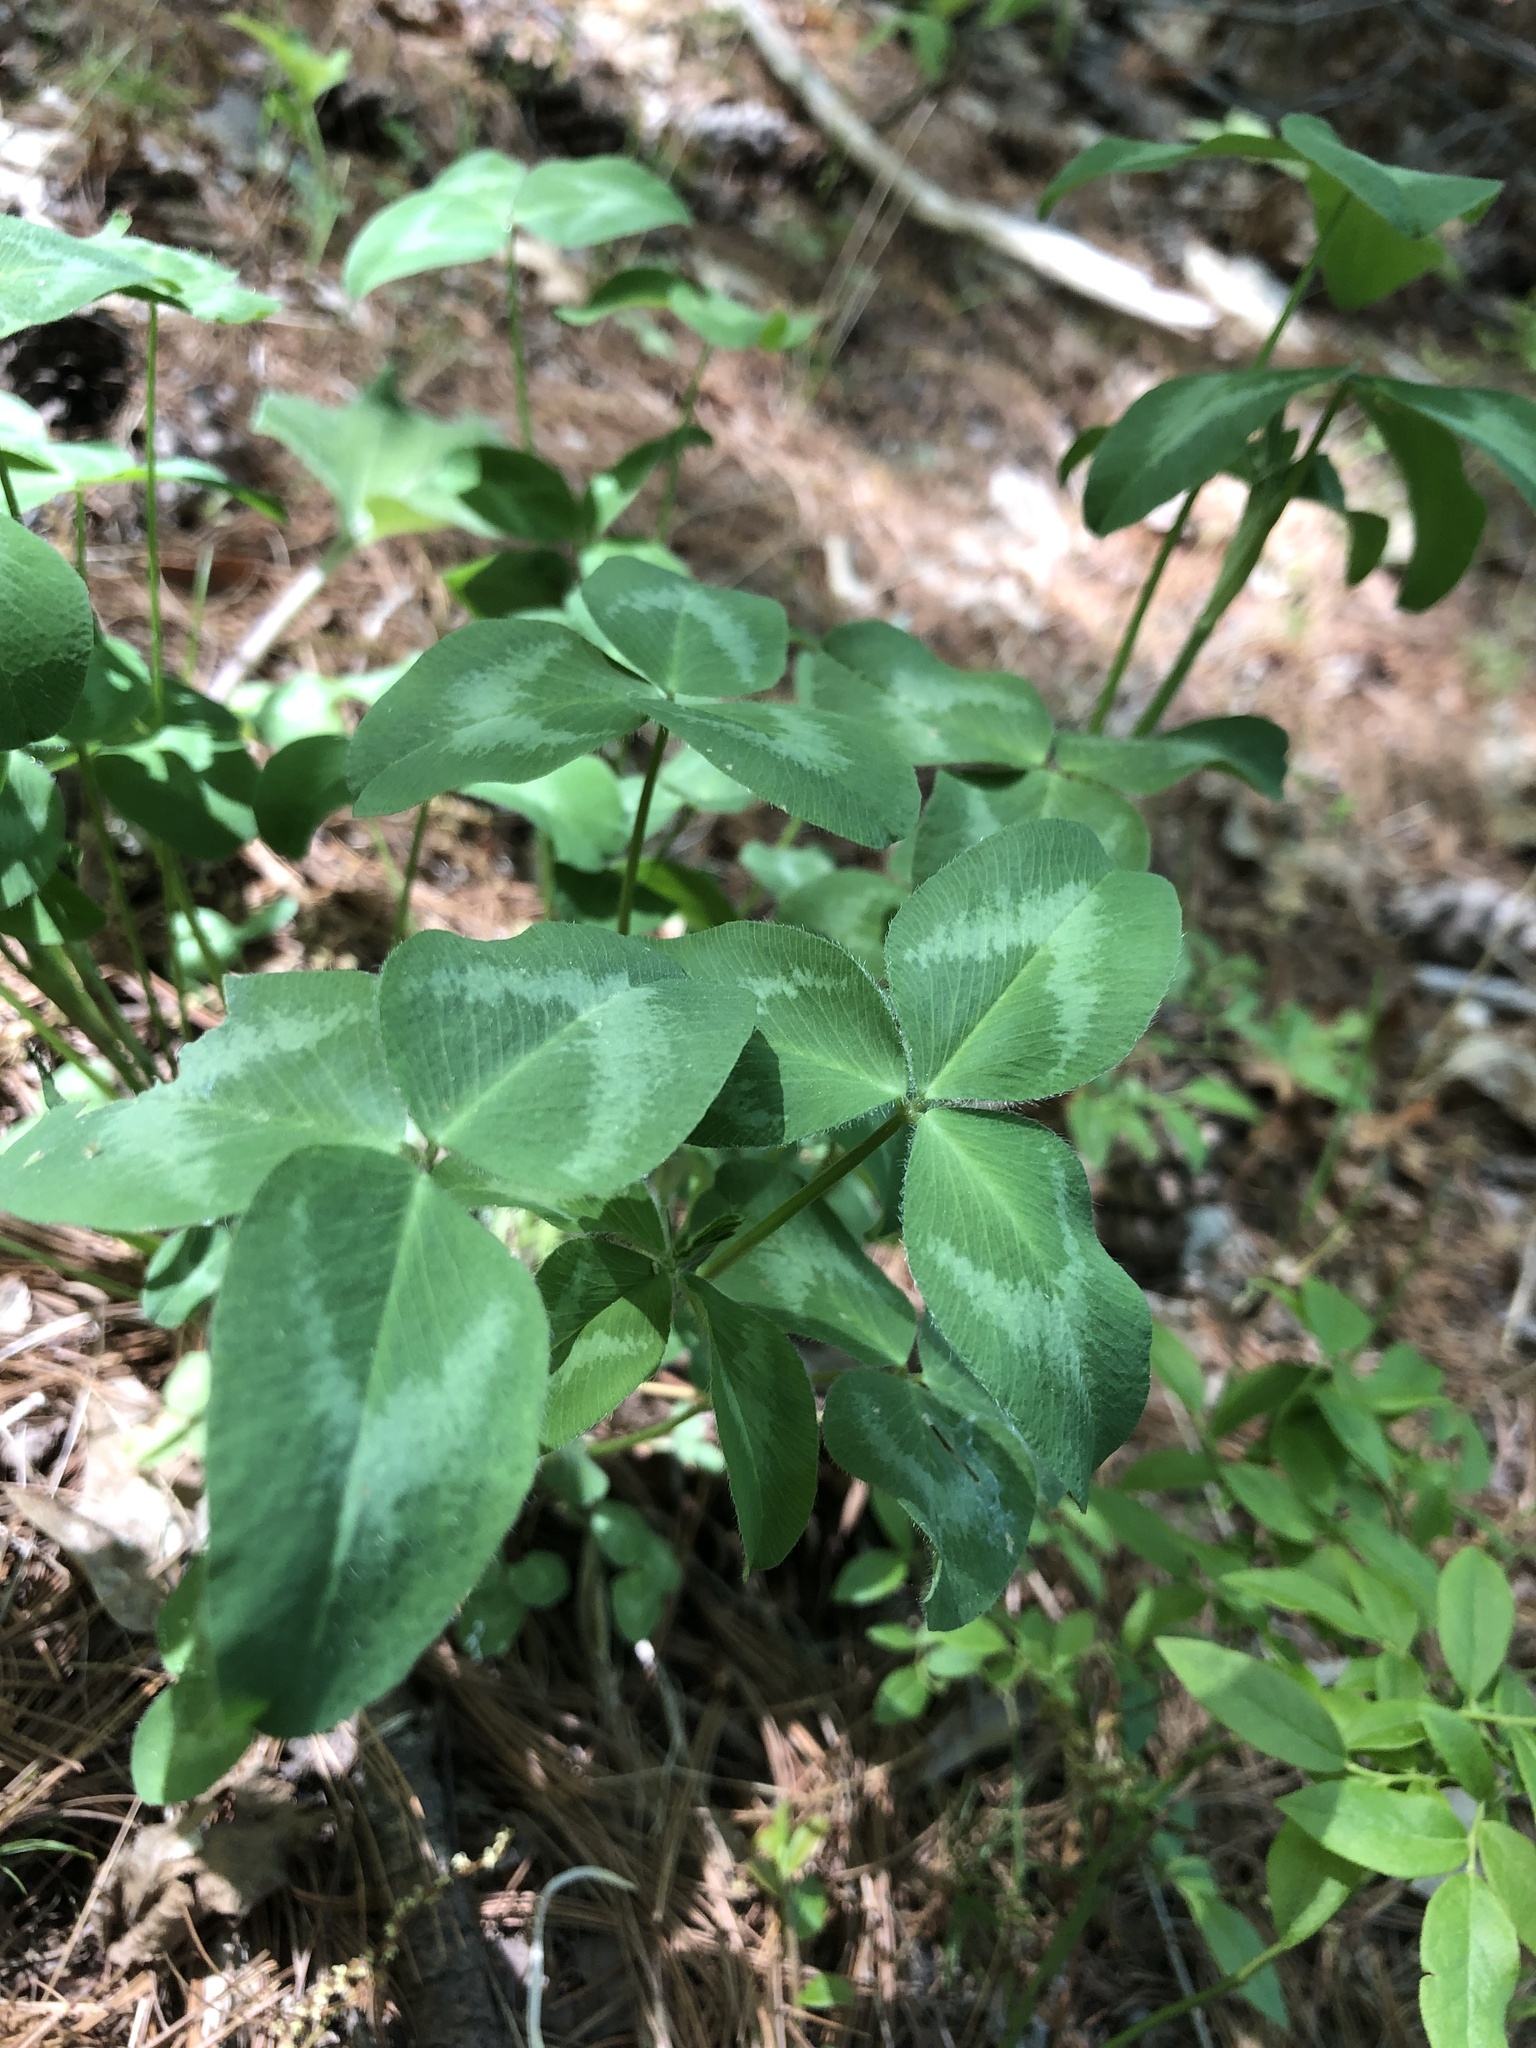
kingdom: Plantae
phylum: Tracheophyta
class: Magnoliopsida
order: Fabales
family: Fabaceae
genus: Trifolium
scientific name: Trifolium pratense
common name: Red clover
